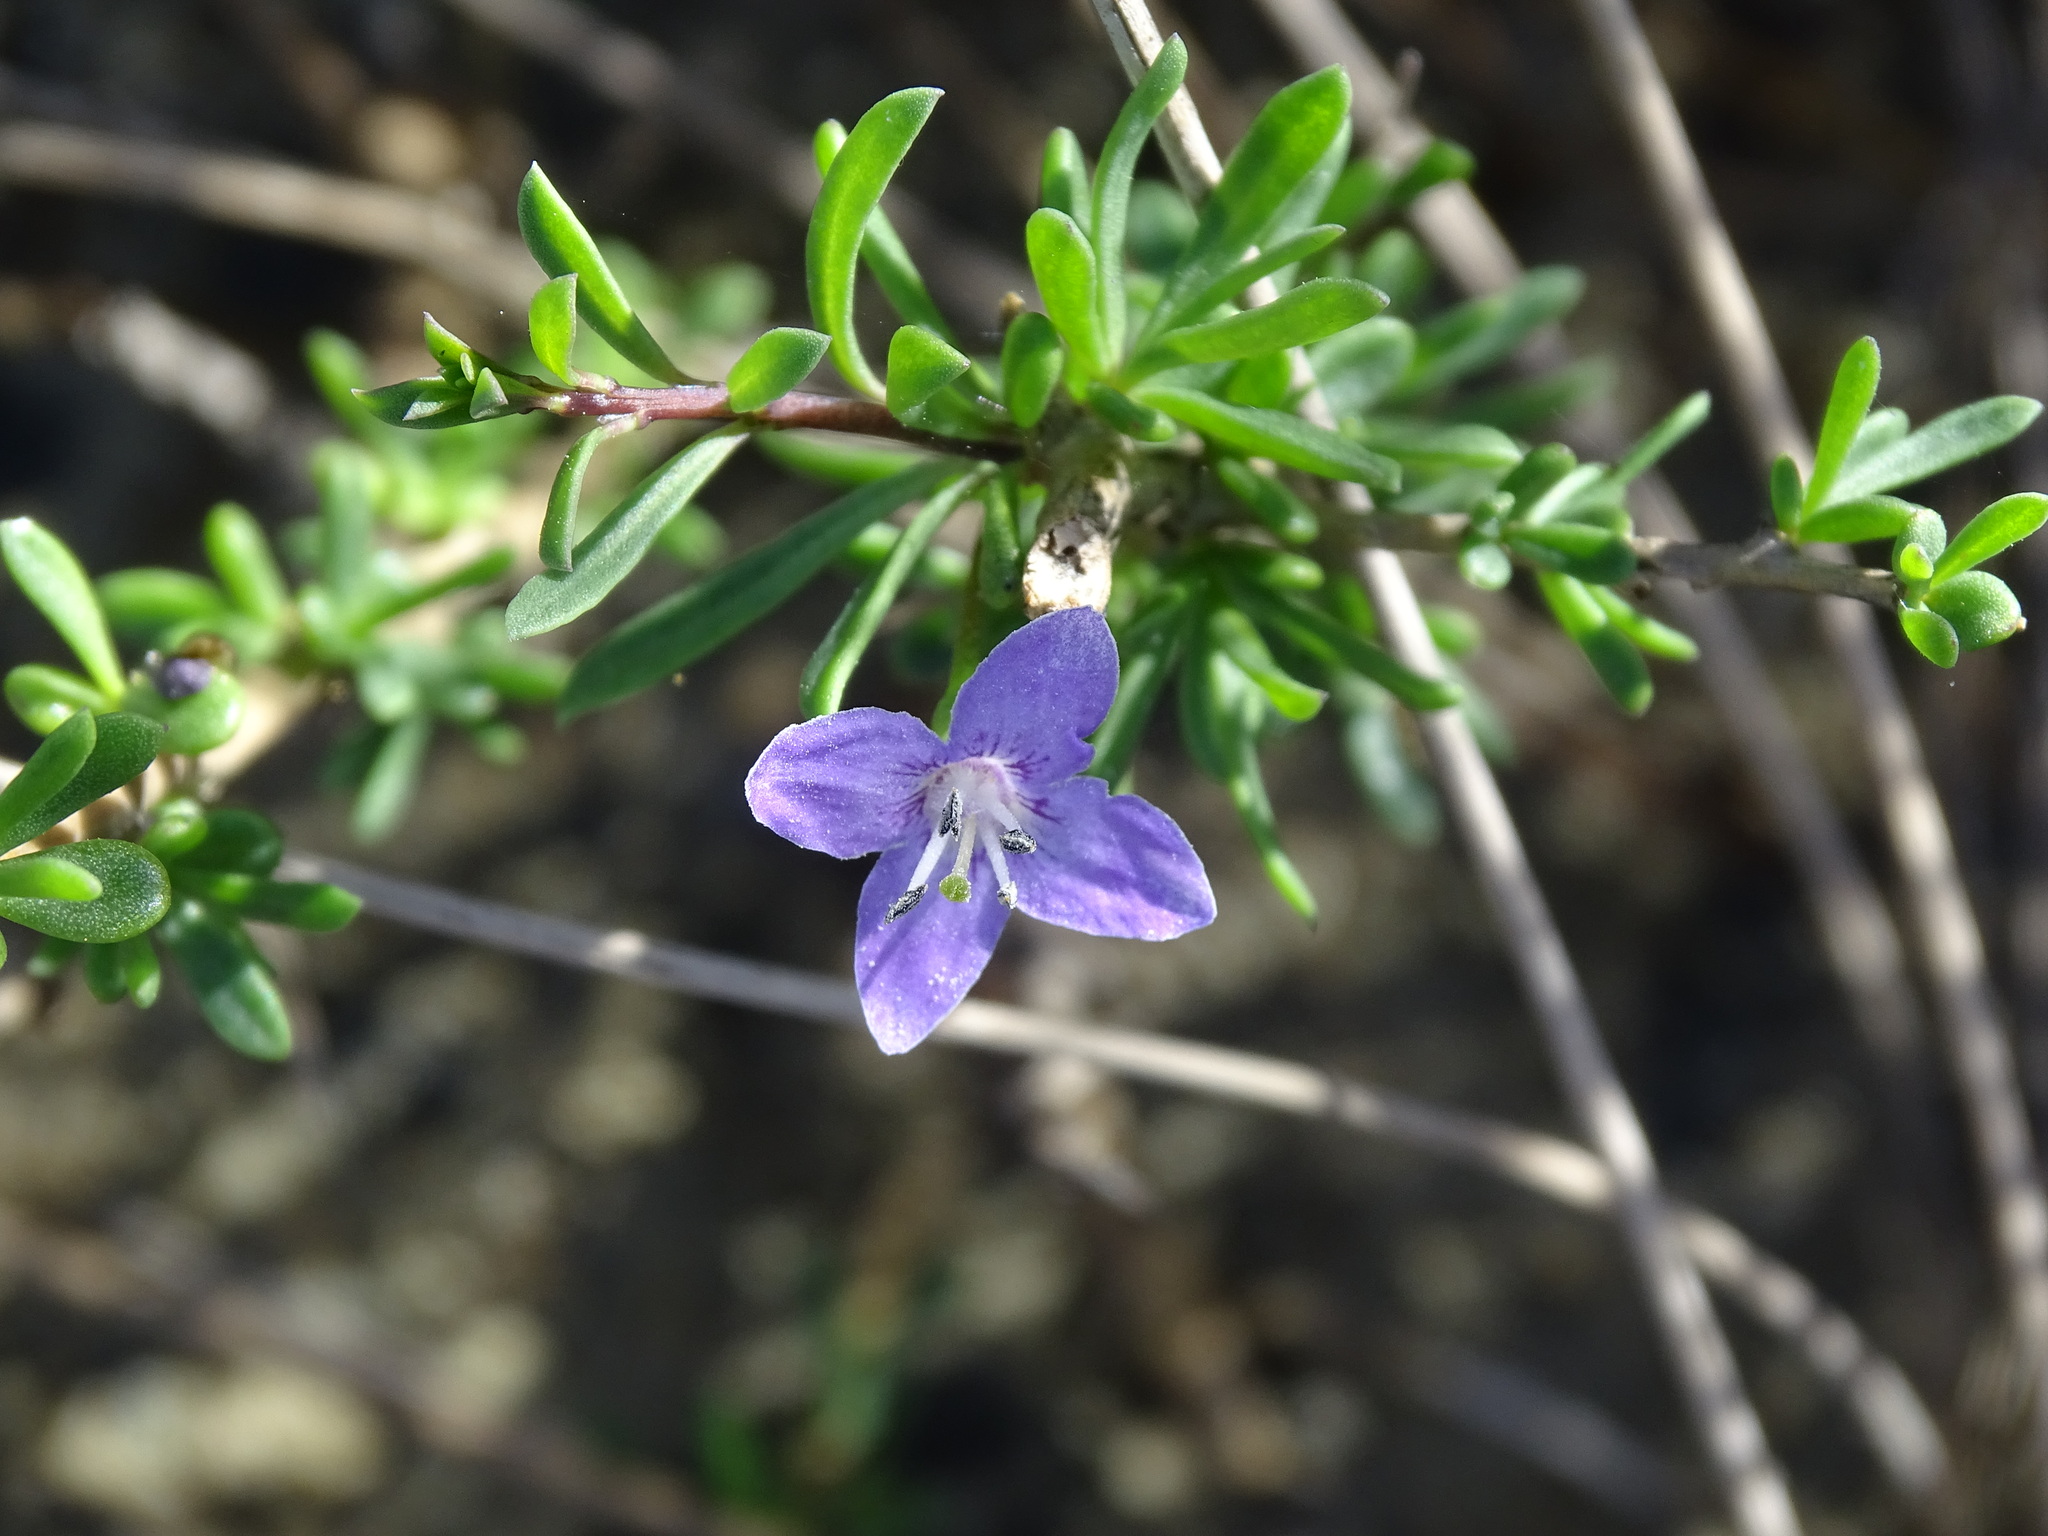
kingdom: Plantae
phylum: Tracheophyta
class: Magnoliopsida
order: Solanales
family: Solanaceae
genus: Lycium
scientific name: Lycium carolinianum
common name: Christmasberry
